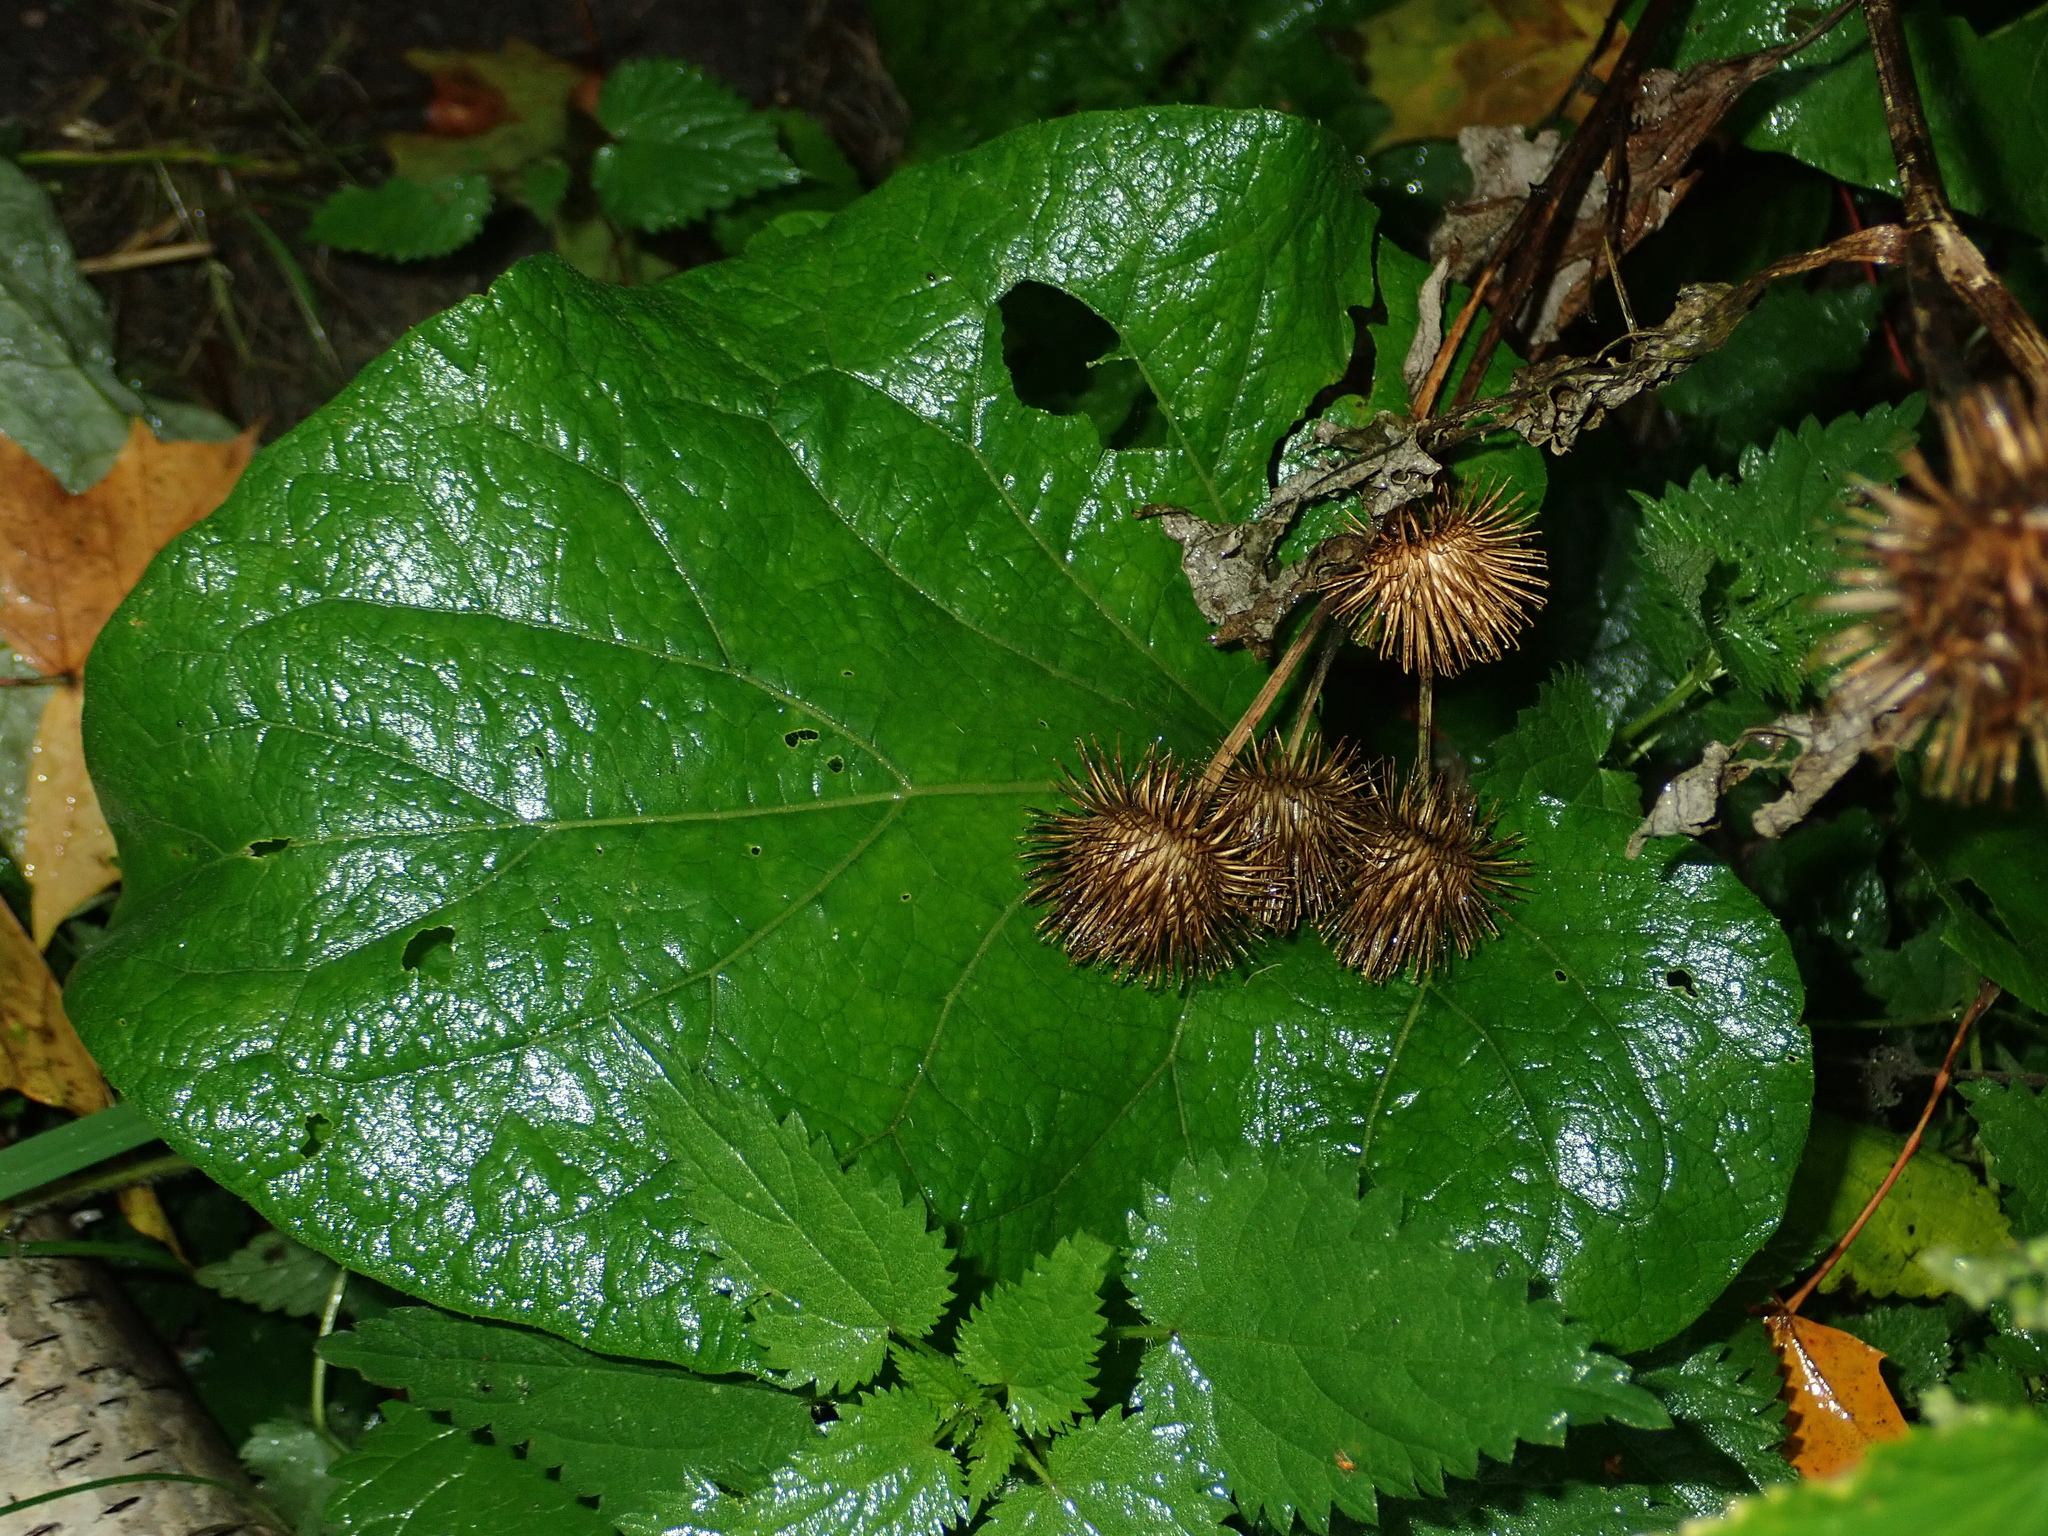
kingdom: Plantae
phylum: Tracheophyta
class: Magnoliopsida
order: Asterales
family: Asteraceae
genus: Arctium
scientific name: Arctium lappa
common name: Greater burdock
